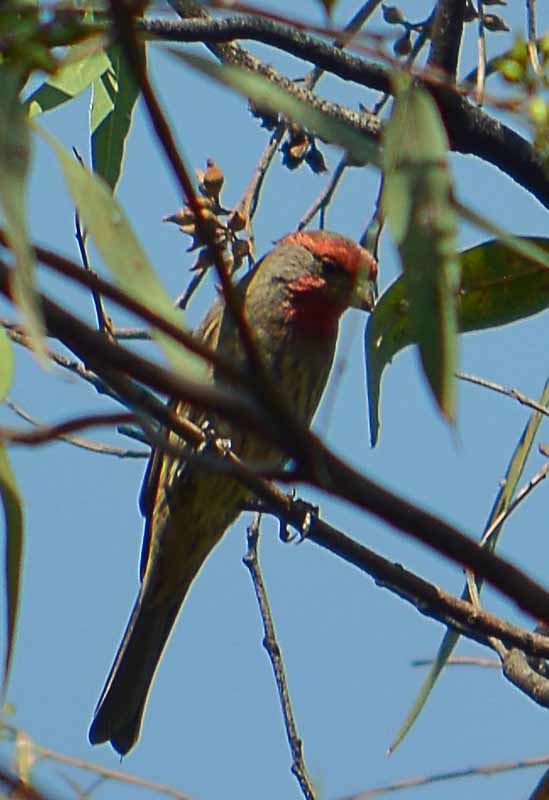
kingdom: Animalia
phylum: Chordata
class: Aves
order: Passeriformes
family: Fringillidae
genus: Haemorhous
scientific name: Haemorhous mexicanus
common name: House finch
